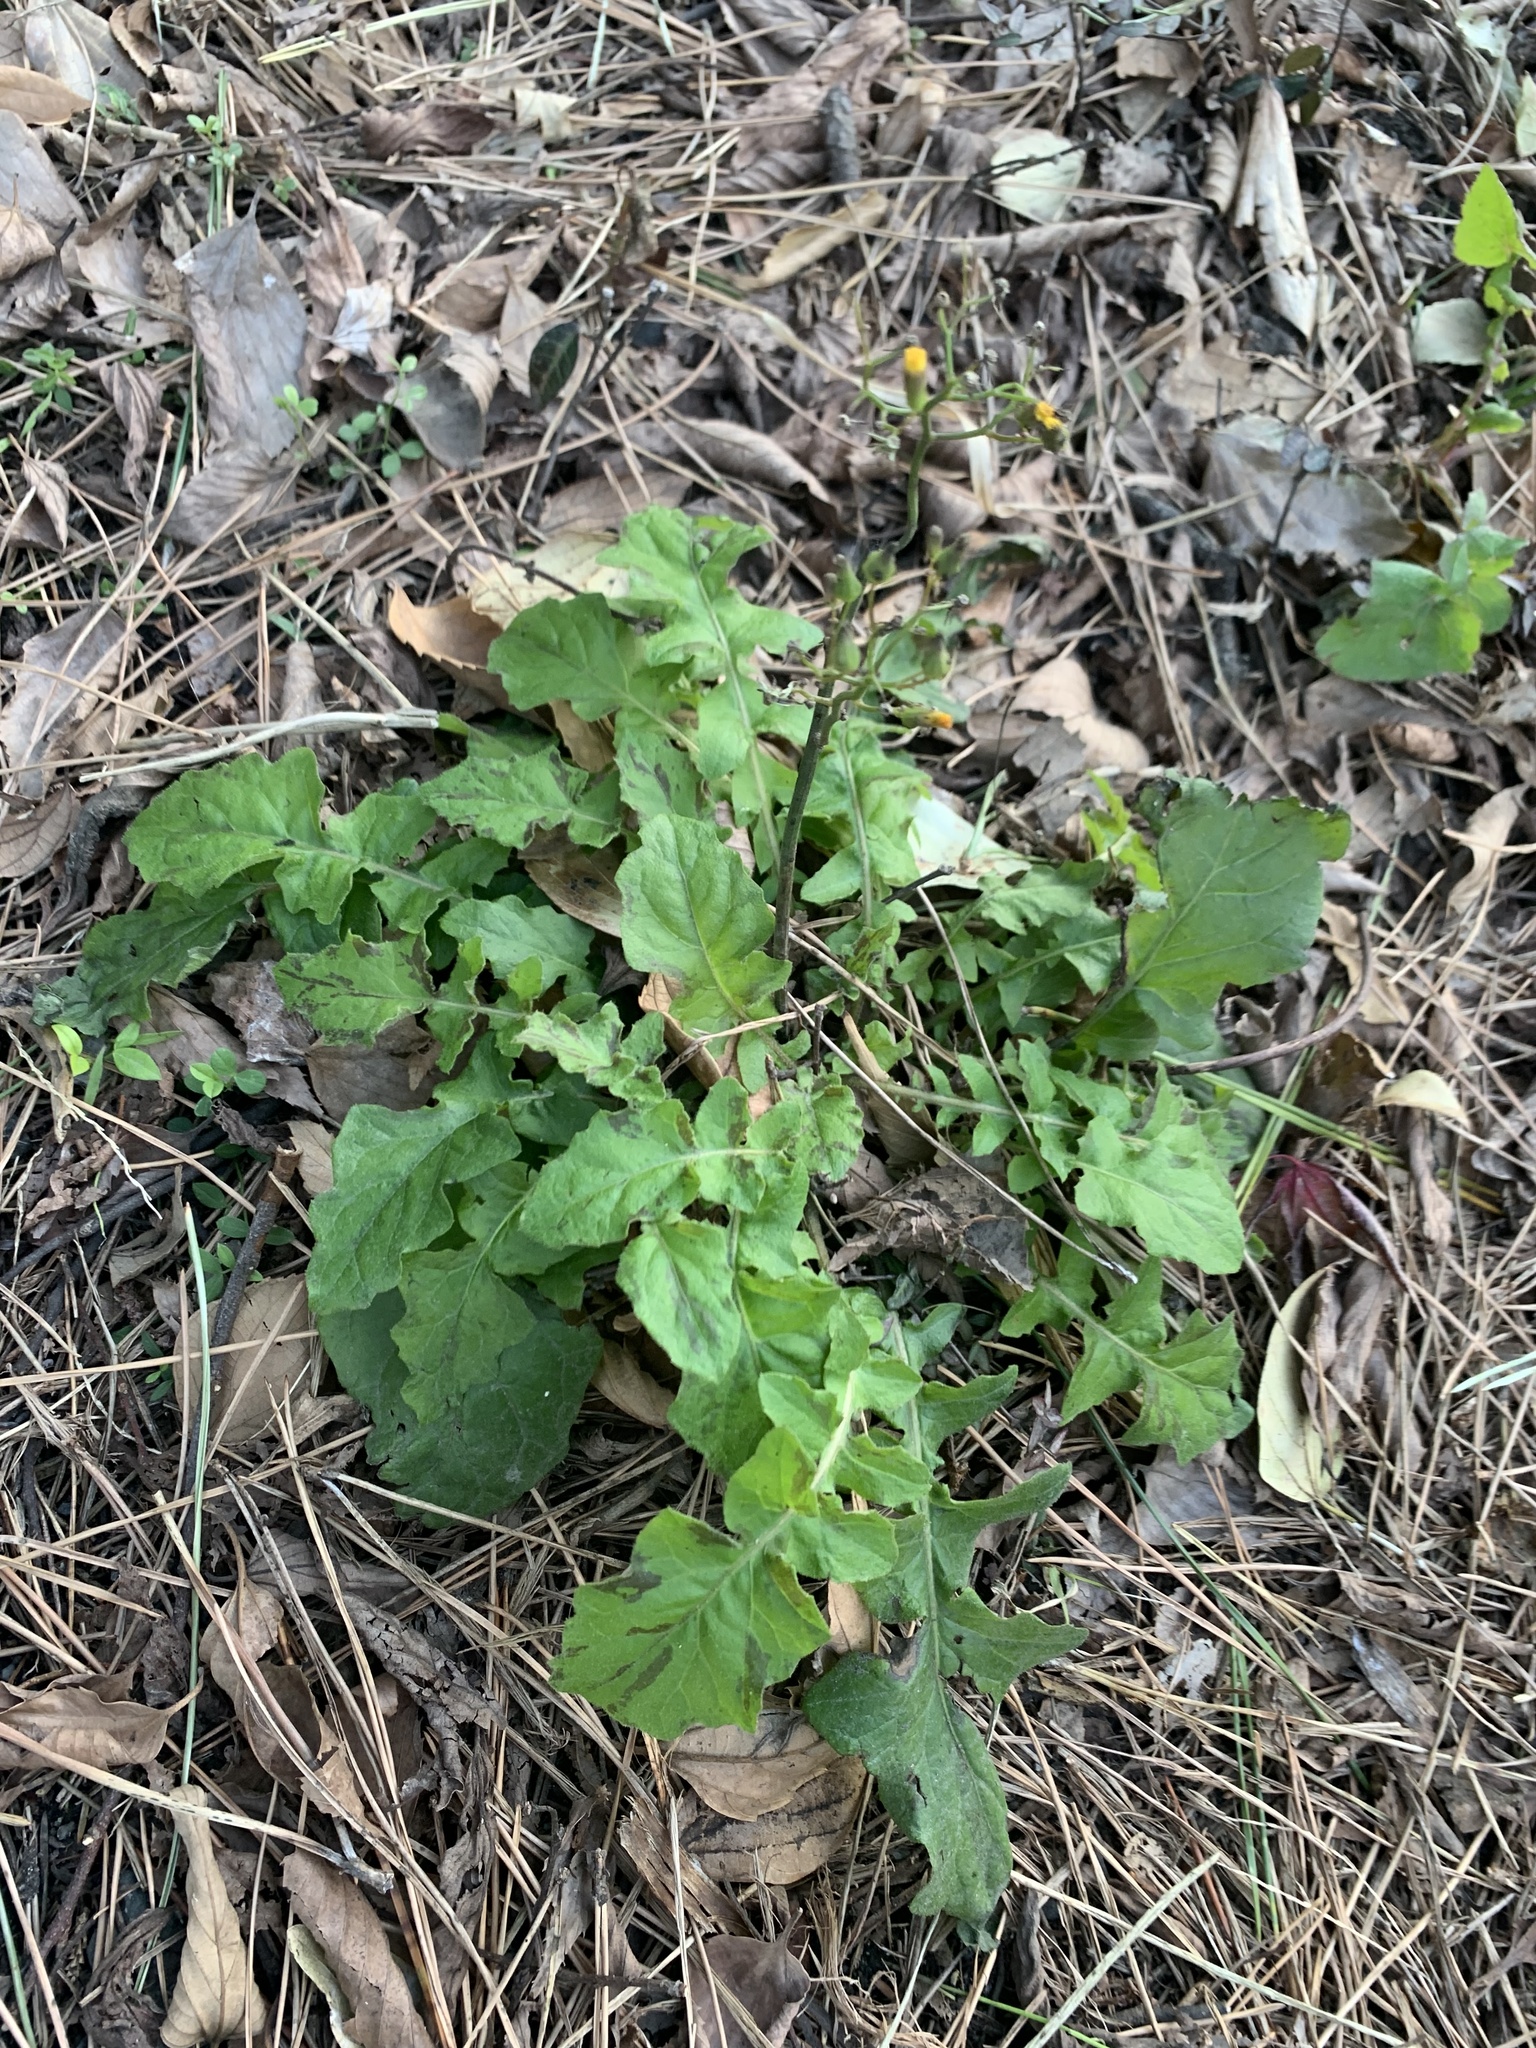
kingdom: Plantae
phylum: Tracheophyta
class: Magnoliopsida
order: Asterales
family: Asteraceae
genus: Youngia
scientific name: Youngia japonica
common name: Oriental false hawksbeard
